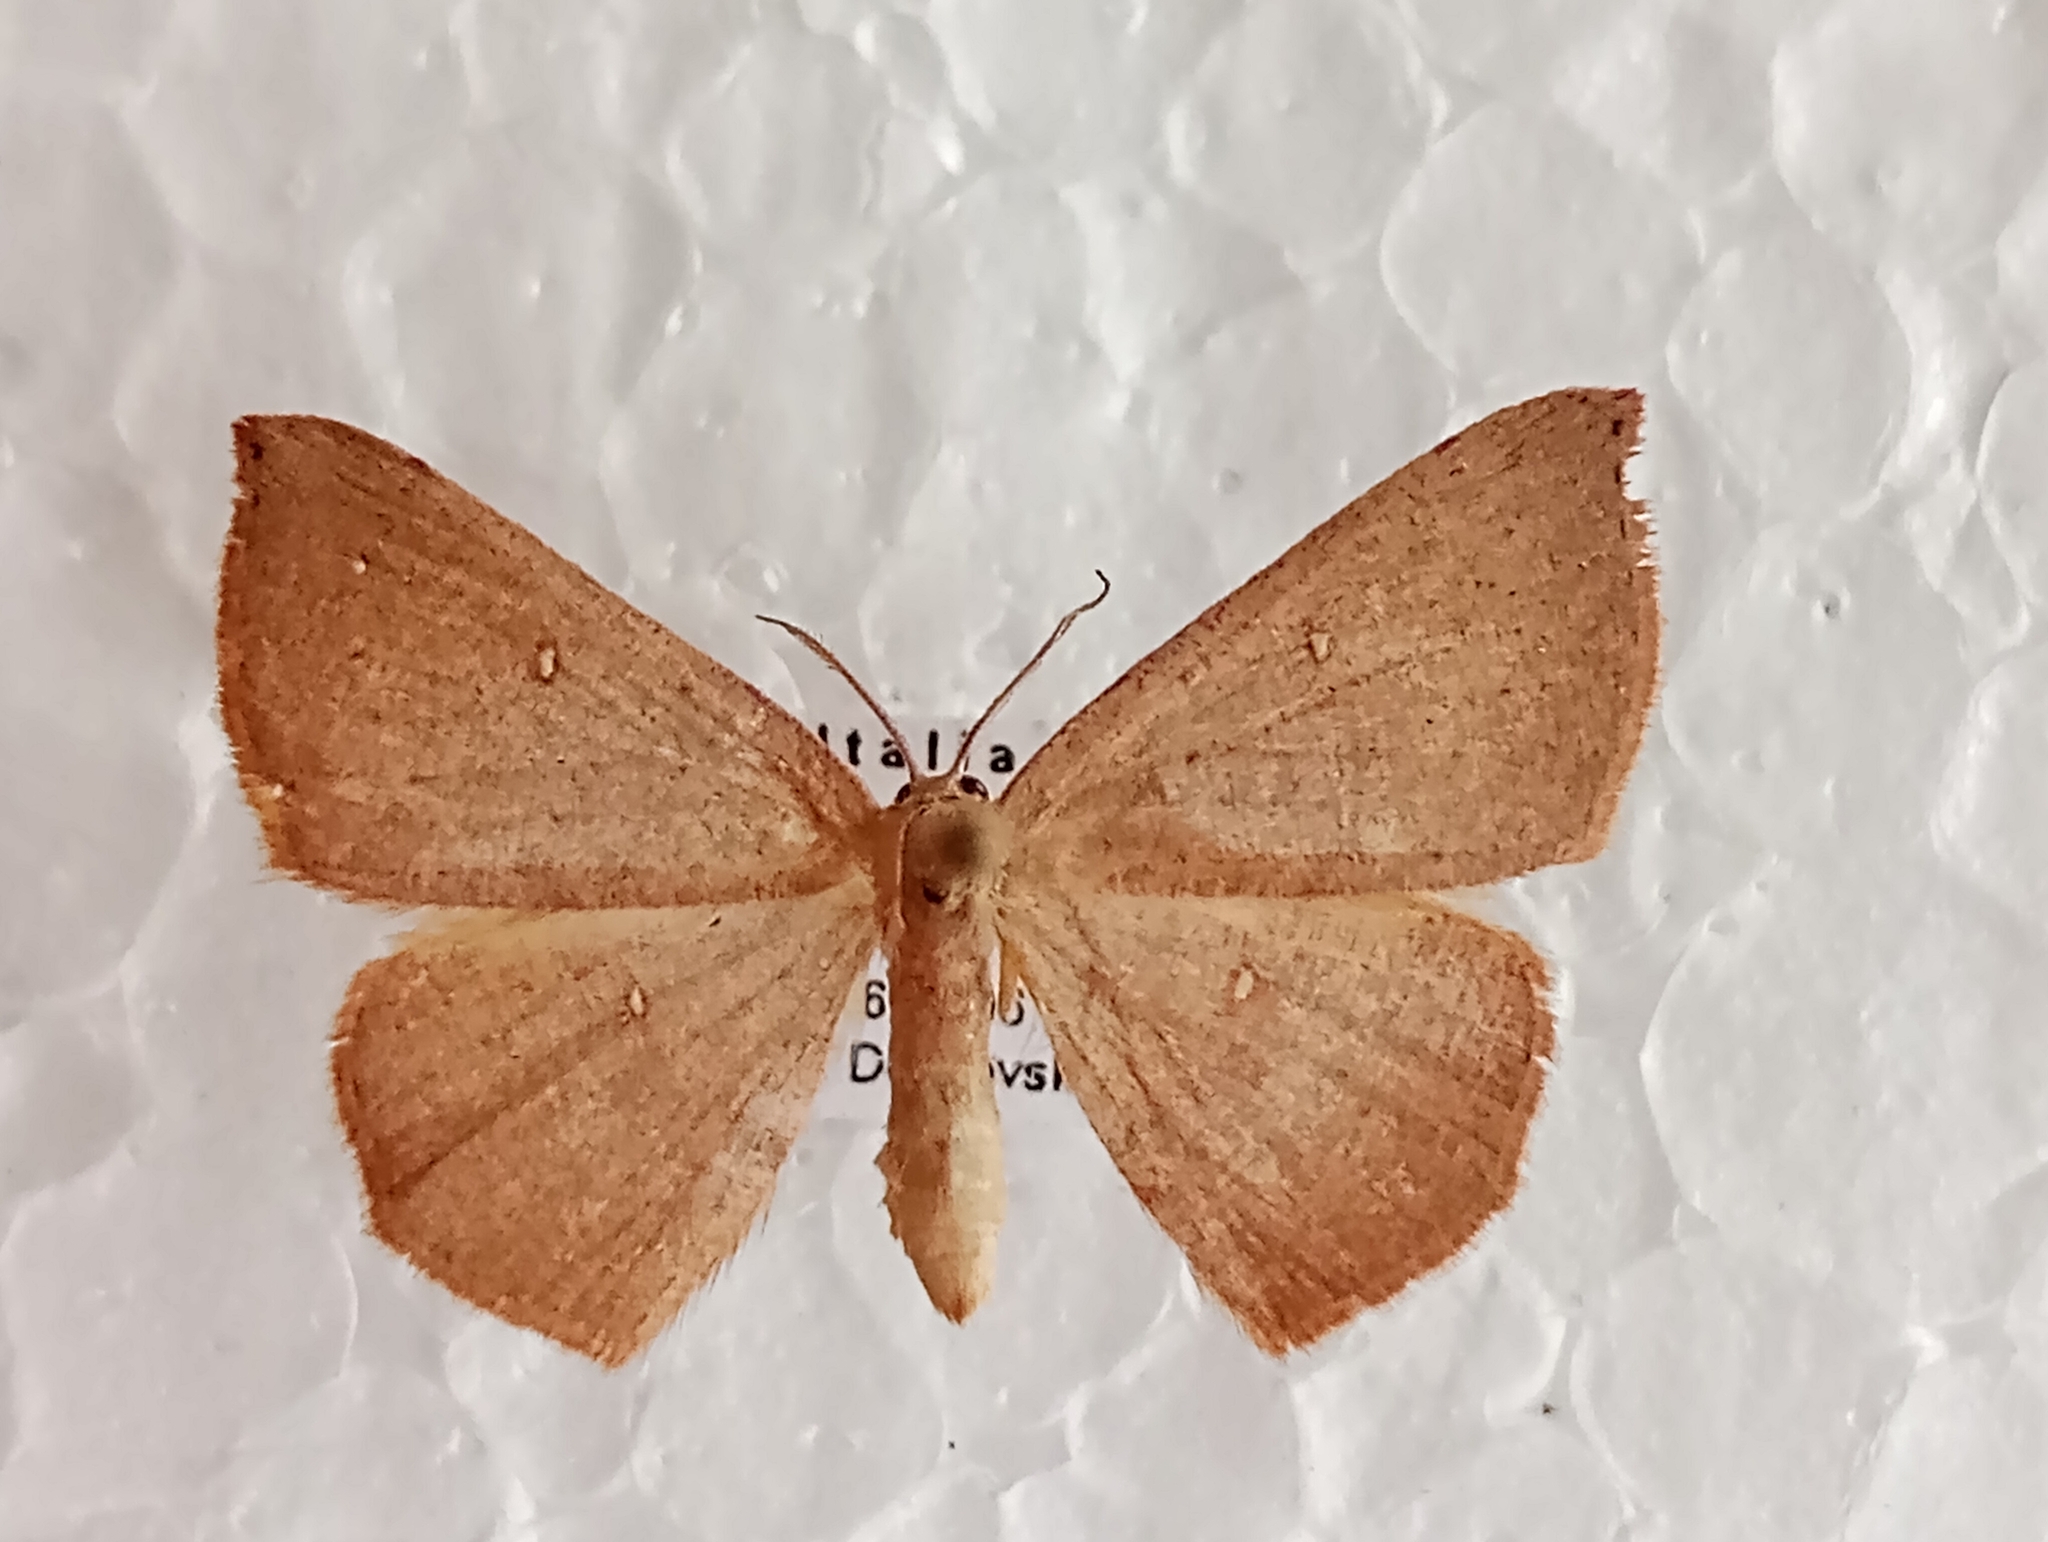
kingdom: Animalia
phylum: Arthropoda
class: Insecta
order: Lepidoptera
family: Geometridae
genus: Cyclophora
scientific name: Cyclophora puppillaria
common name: Blair's mocha
